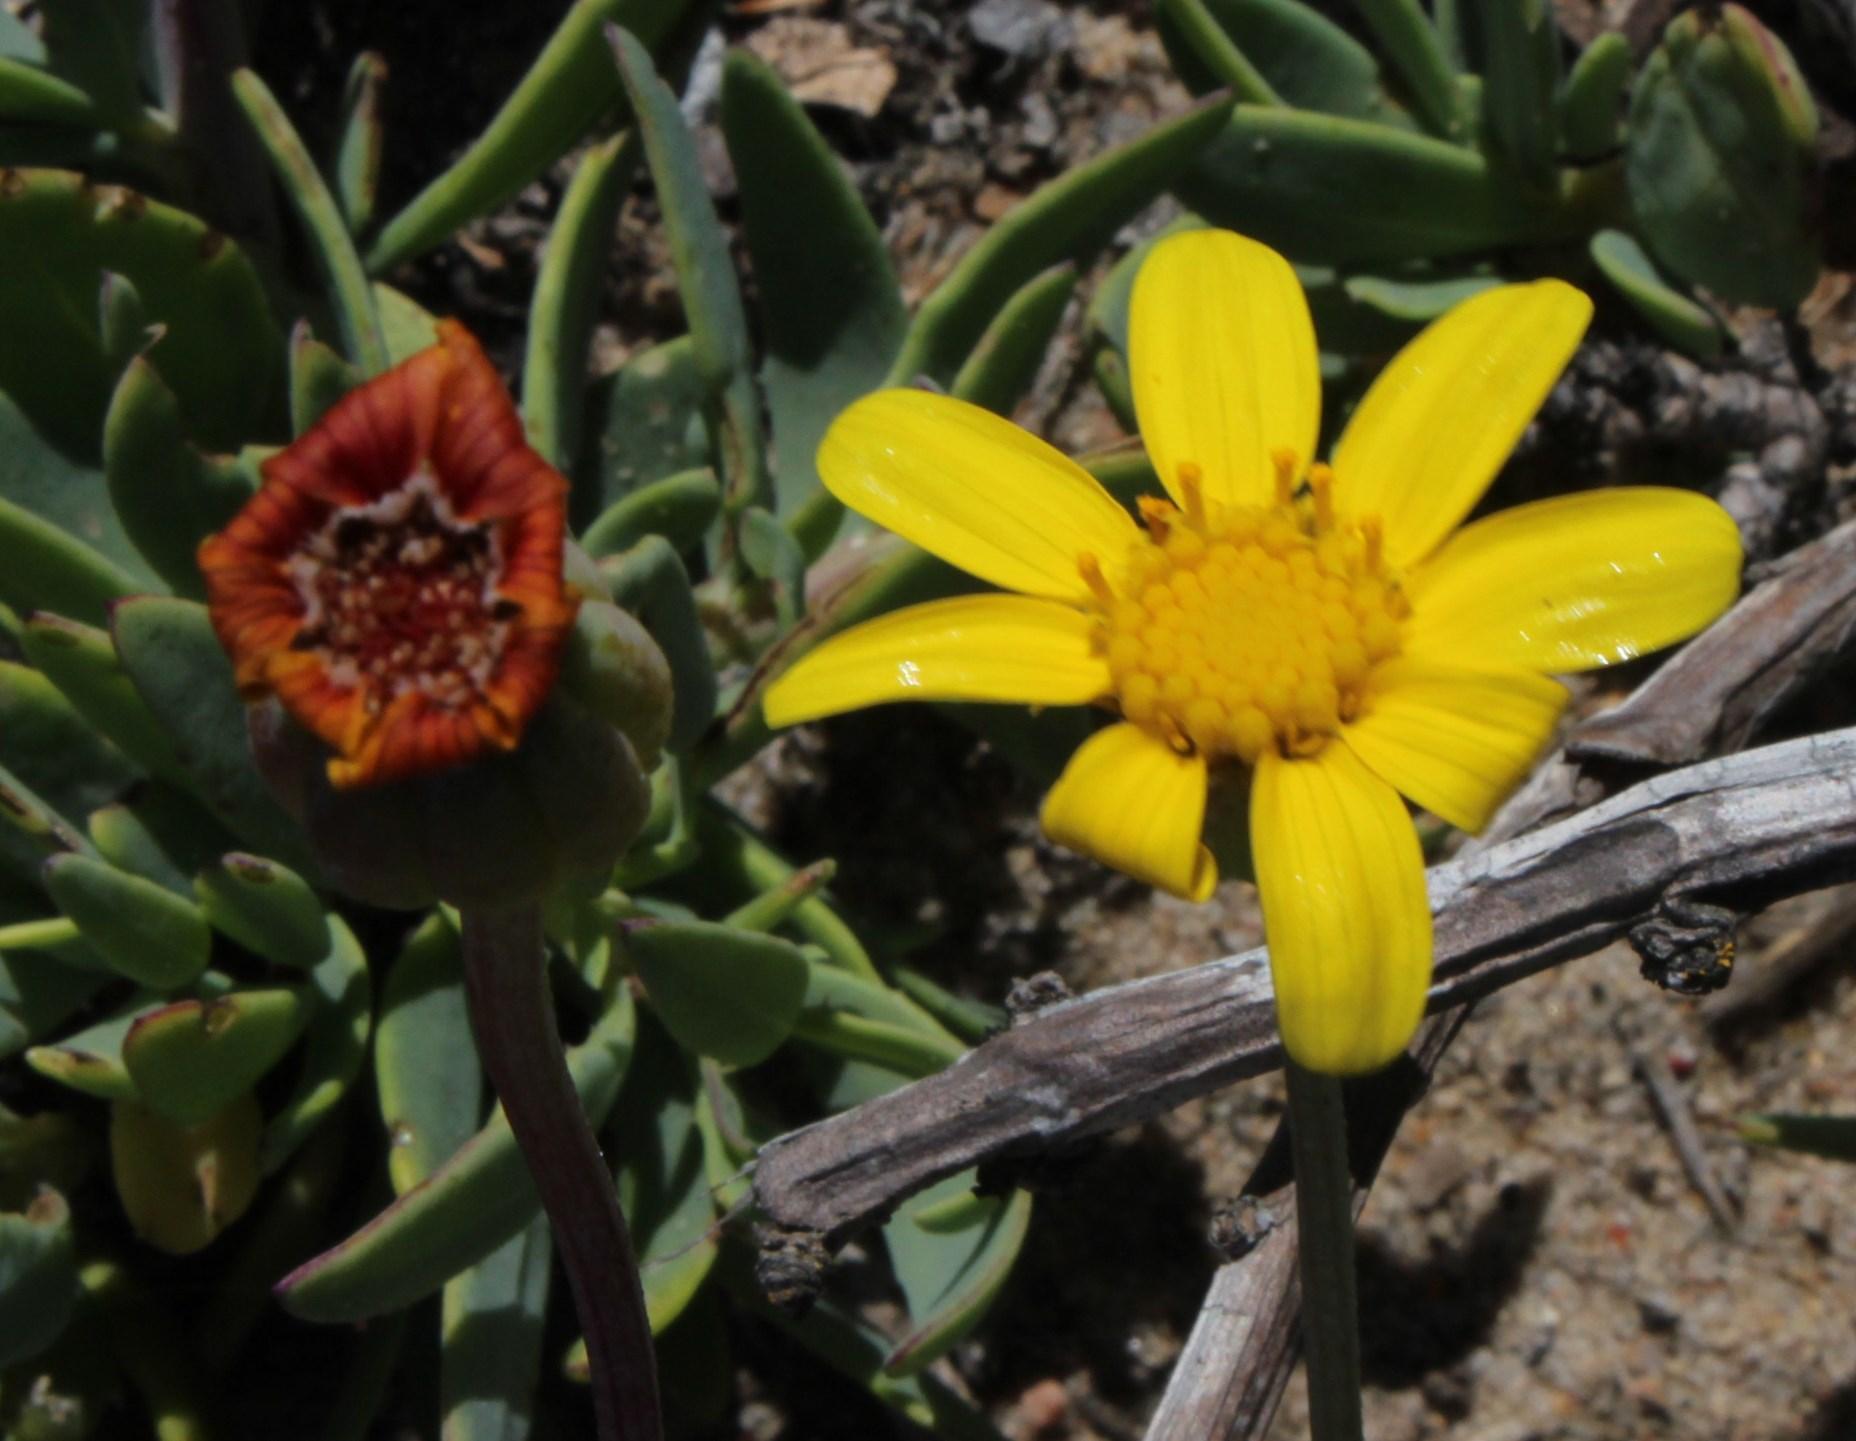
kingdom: Plantae
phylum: Tracheophyta
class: Magnoliopsida
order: Asterales
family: Asteraceae
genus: Othonna
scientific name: Othonna coronopifolia
